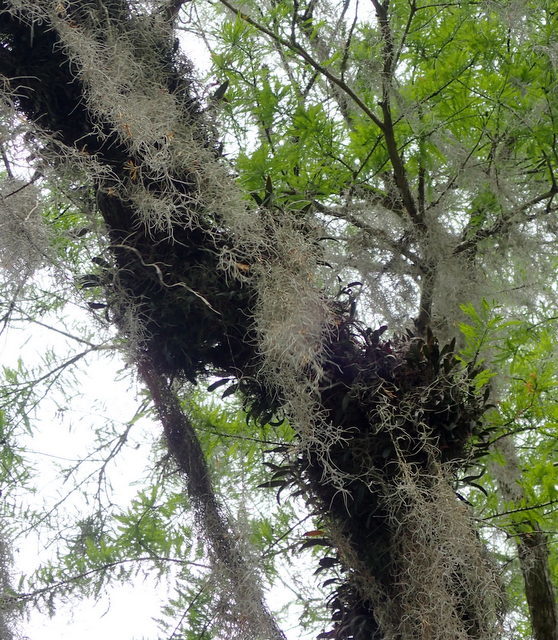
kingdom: Plantae
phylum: Tracheophyta
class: Liliopsida
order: Asparagales
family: Orchidaceae
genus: Epidendrum
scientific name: Epidendrum conopseum
